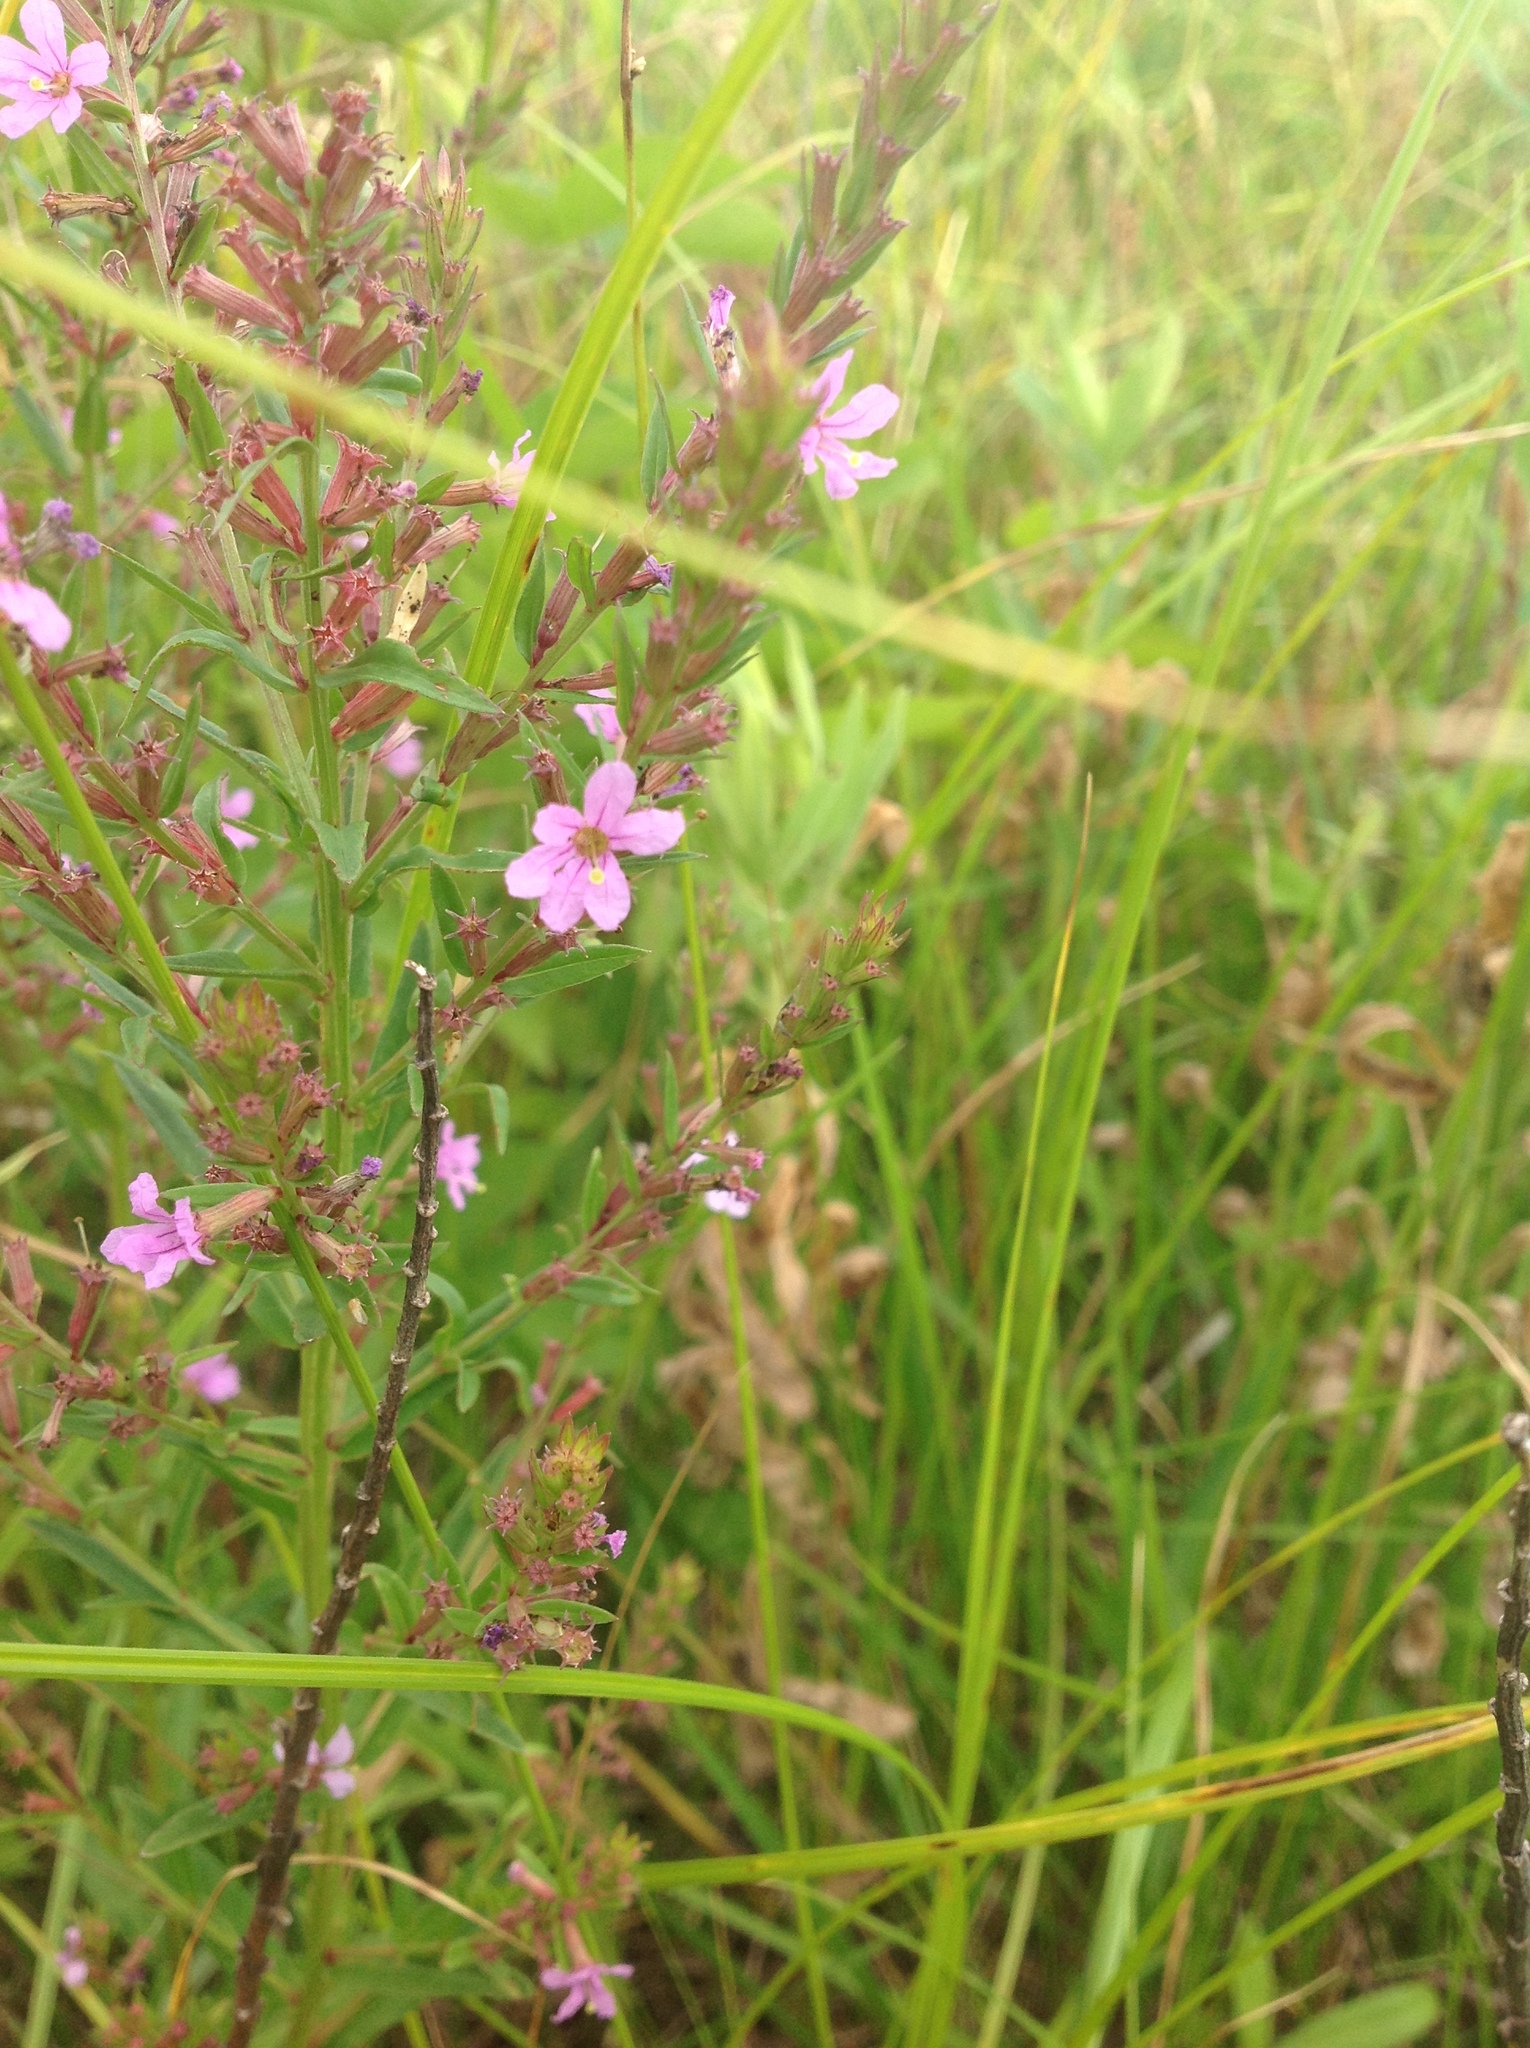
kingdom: Plantae
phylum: Tracheophyta
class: Magnoliopsida
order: Myrtales
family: Lythraceae
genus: Lythrum
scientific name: Lythrum alatum
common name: Winged loosestrife
